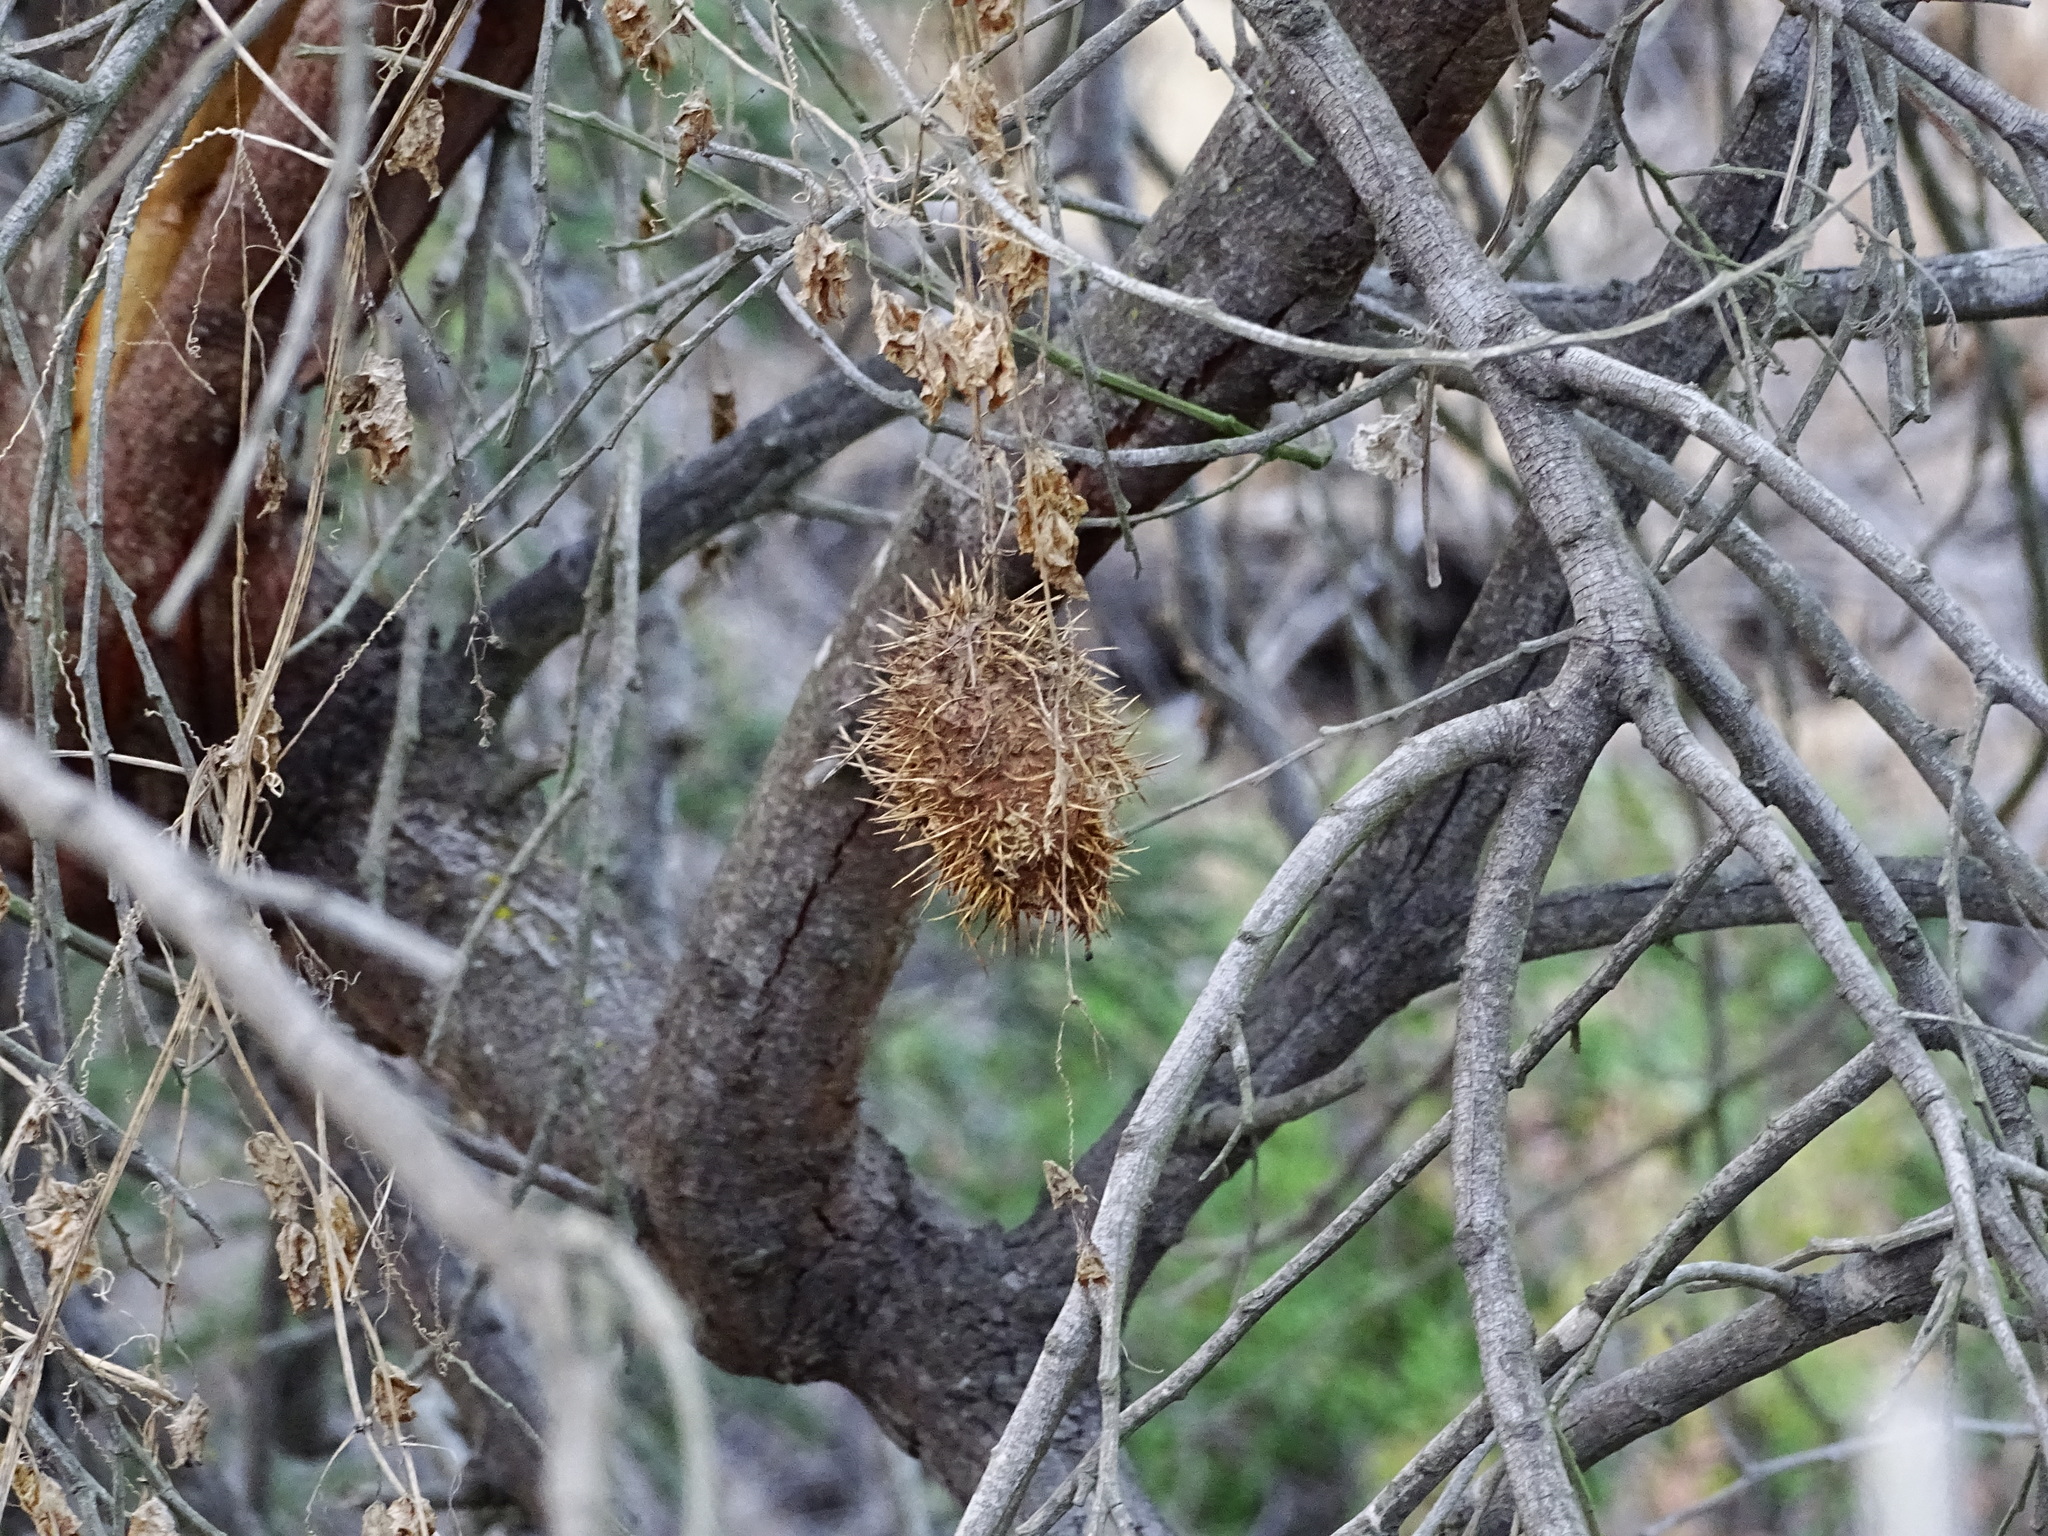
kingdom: Plantae
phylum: Tracheophyta
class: Magnoliopsida
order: Cucurbitales
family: Cucurbitaceae
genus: Marah
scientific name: Marah macrocarpa
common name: Cucamonga manroot
